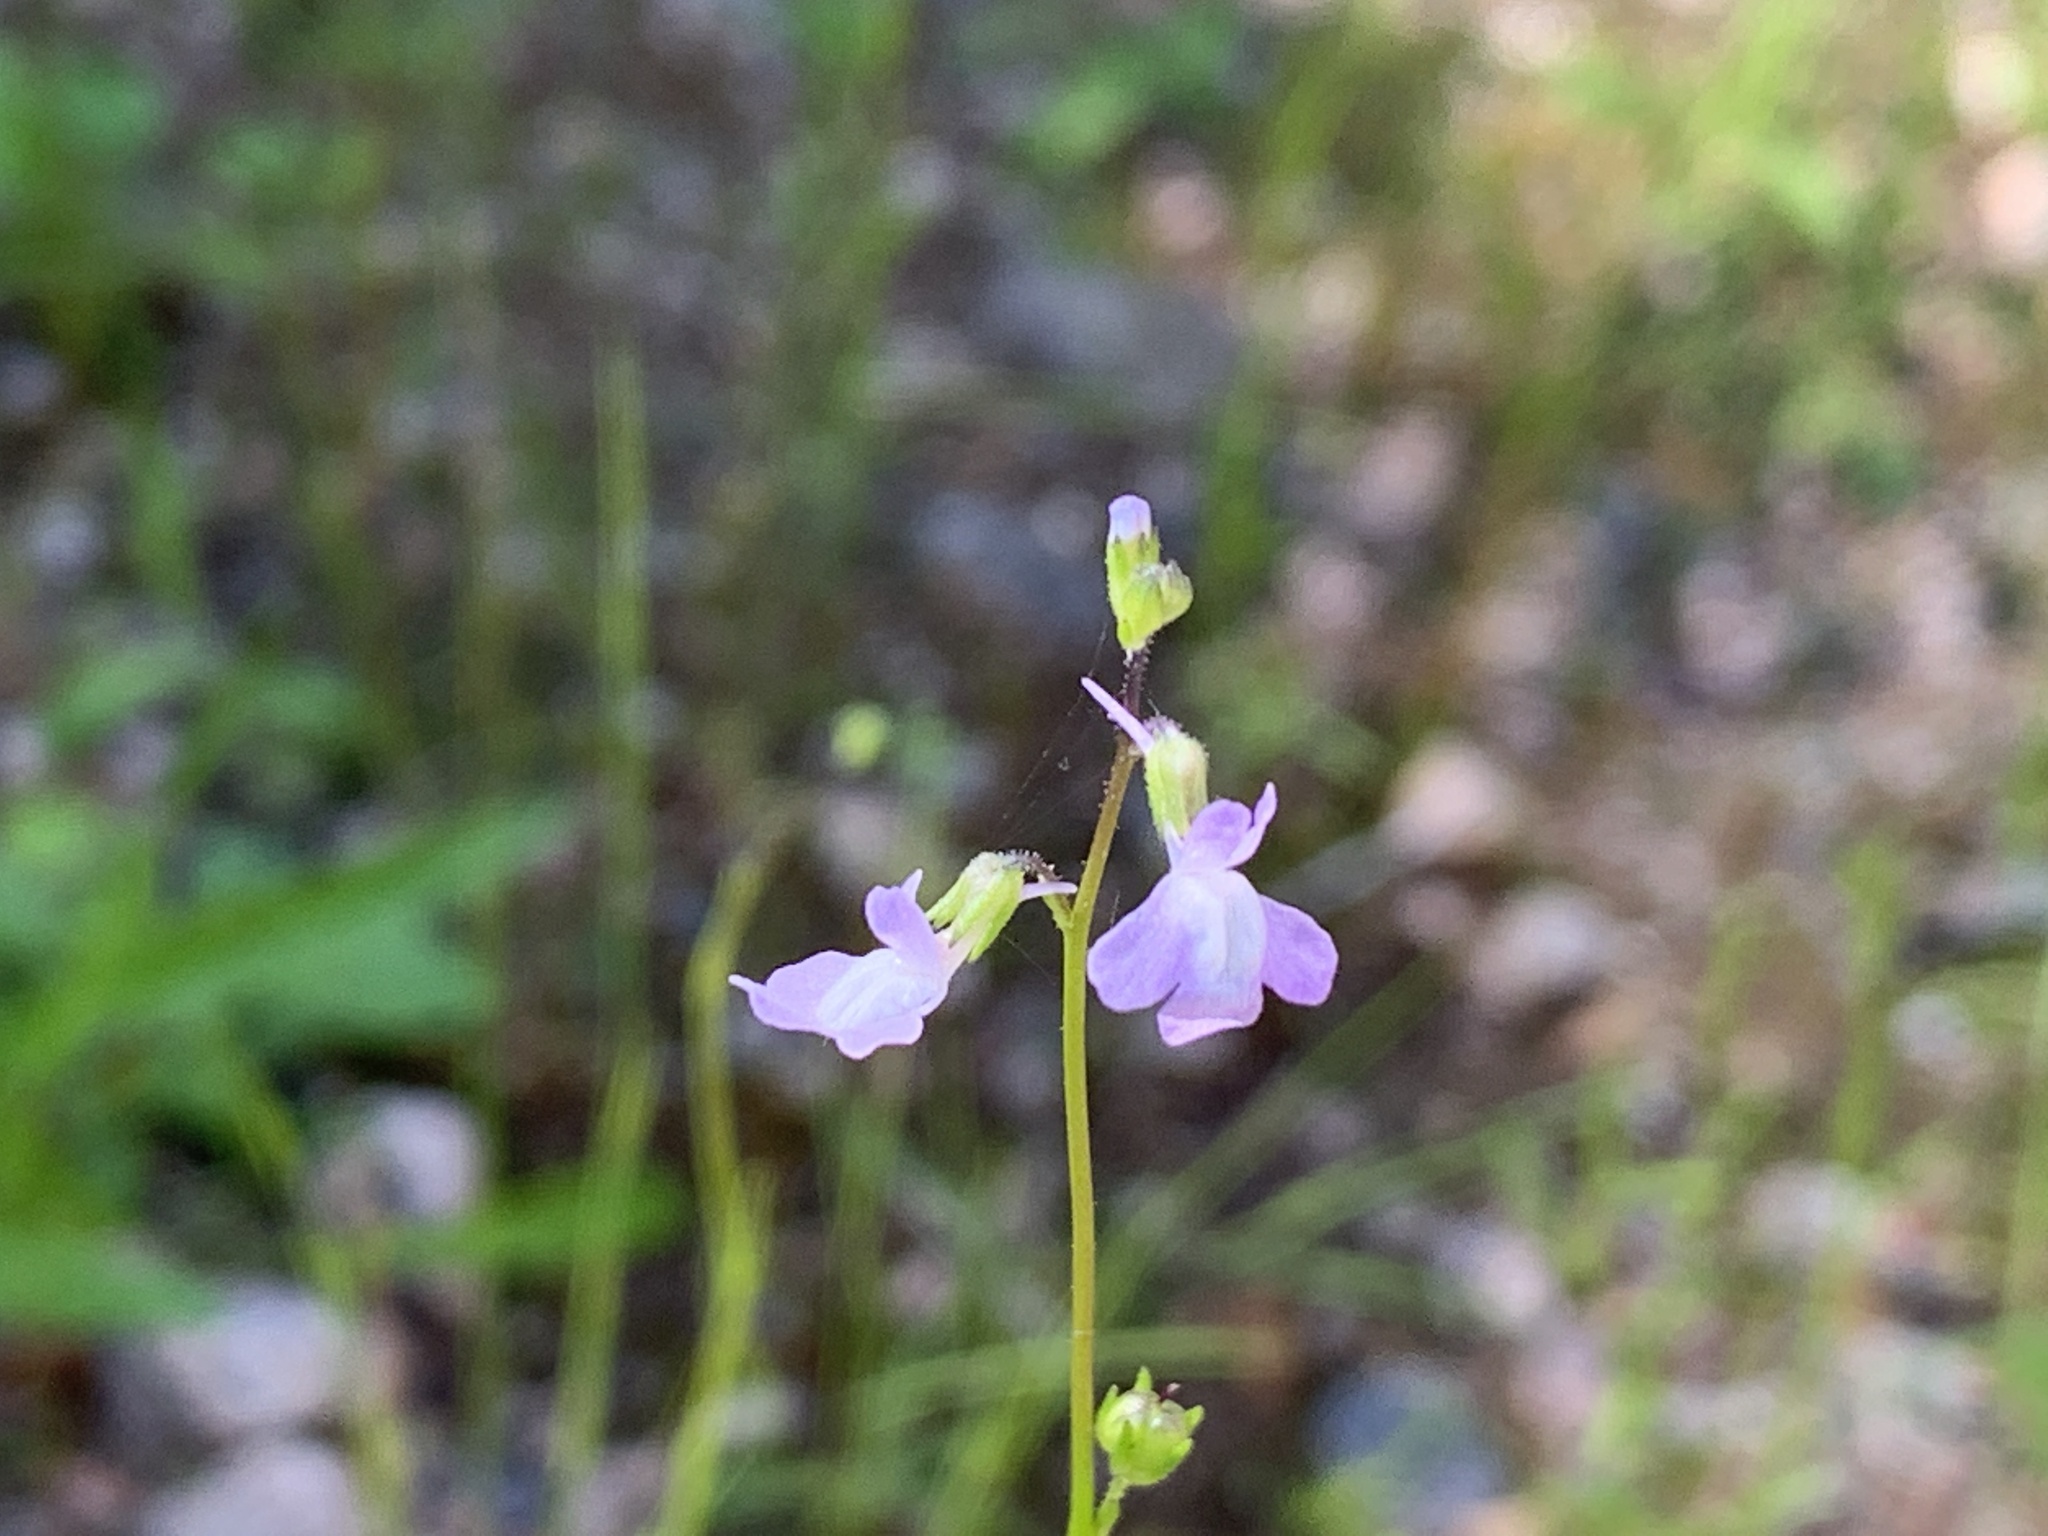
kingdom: Plantae
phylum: Tracheophyta
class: Magnoliopsida
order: Lamiales
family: Plantaginaceae
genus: Nuttallanthus
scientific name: Nuttallanthus canadensis
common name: Blue toadflax
